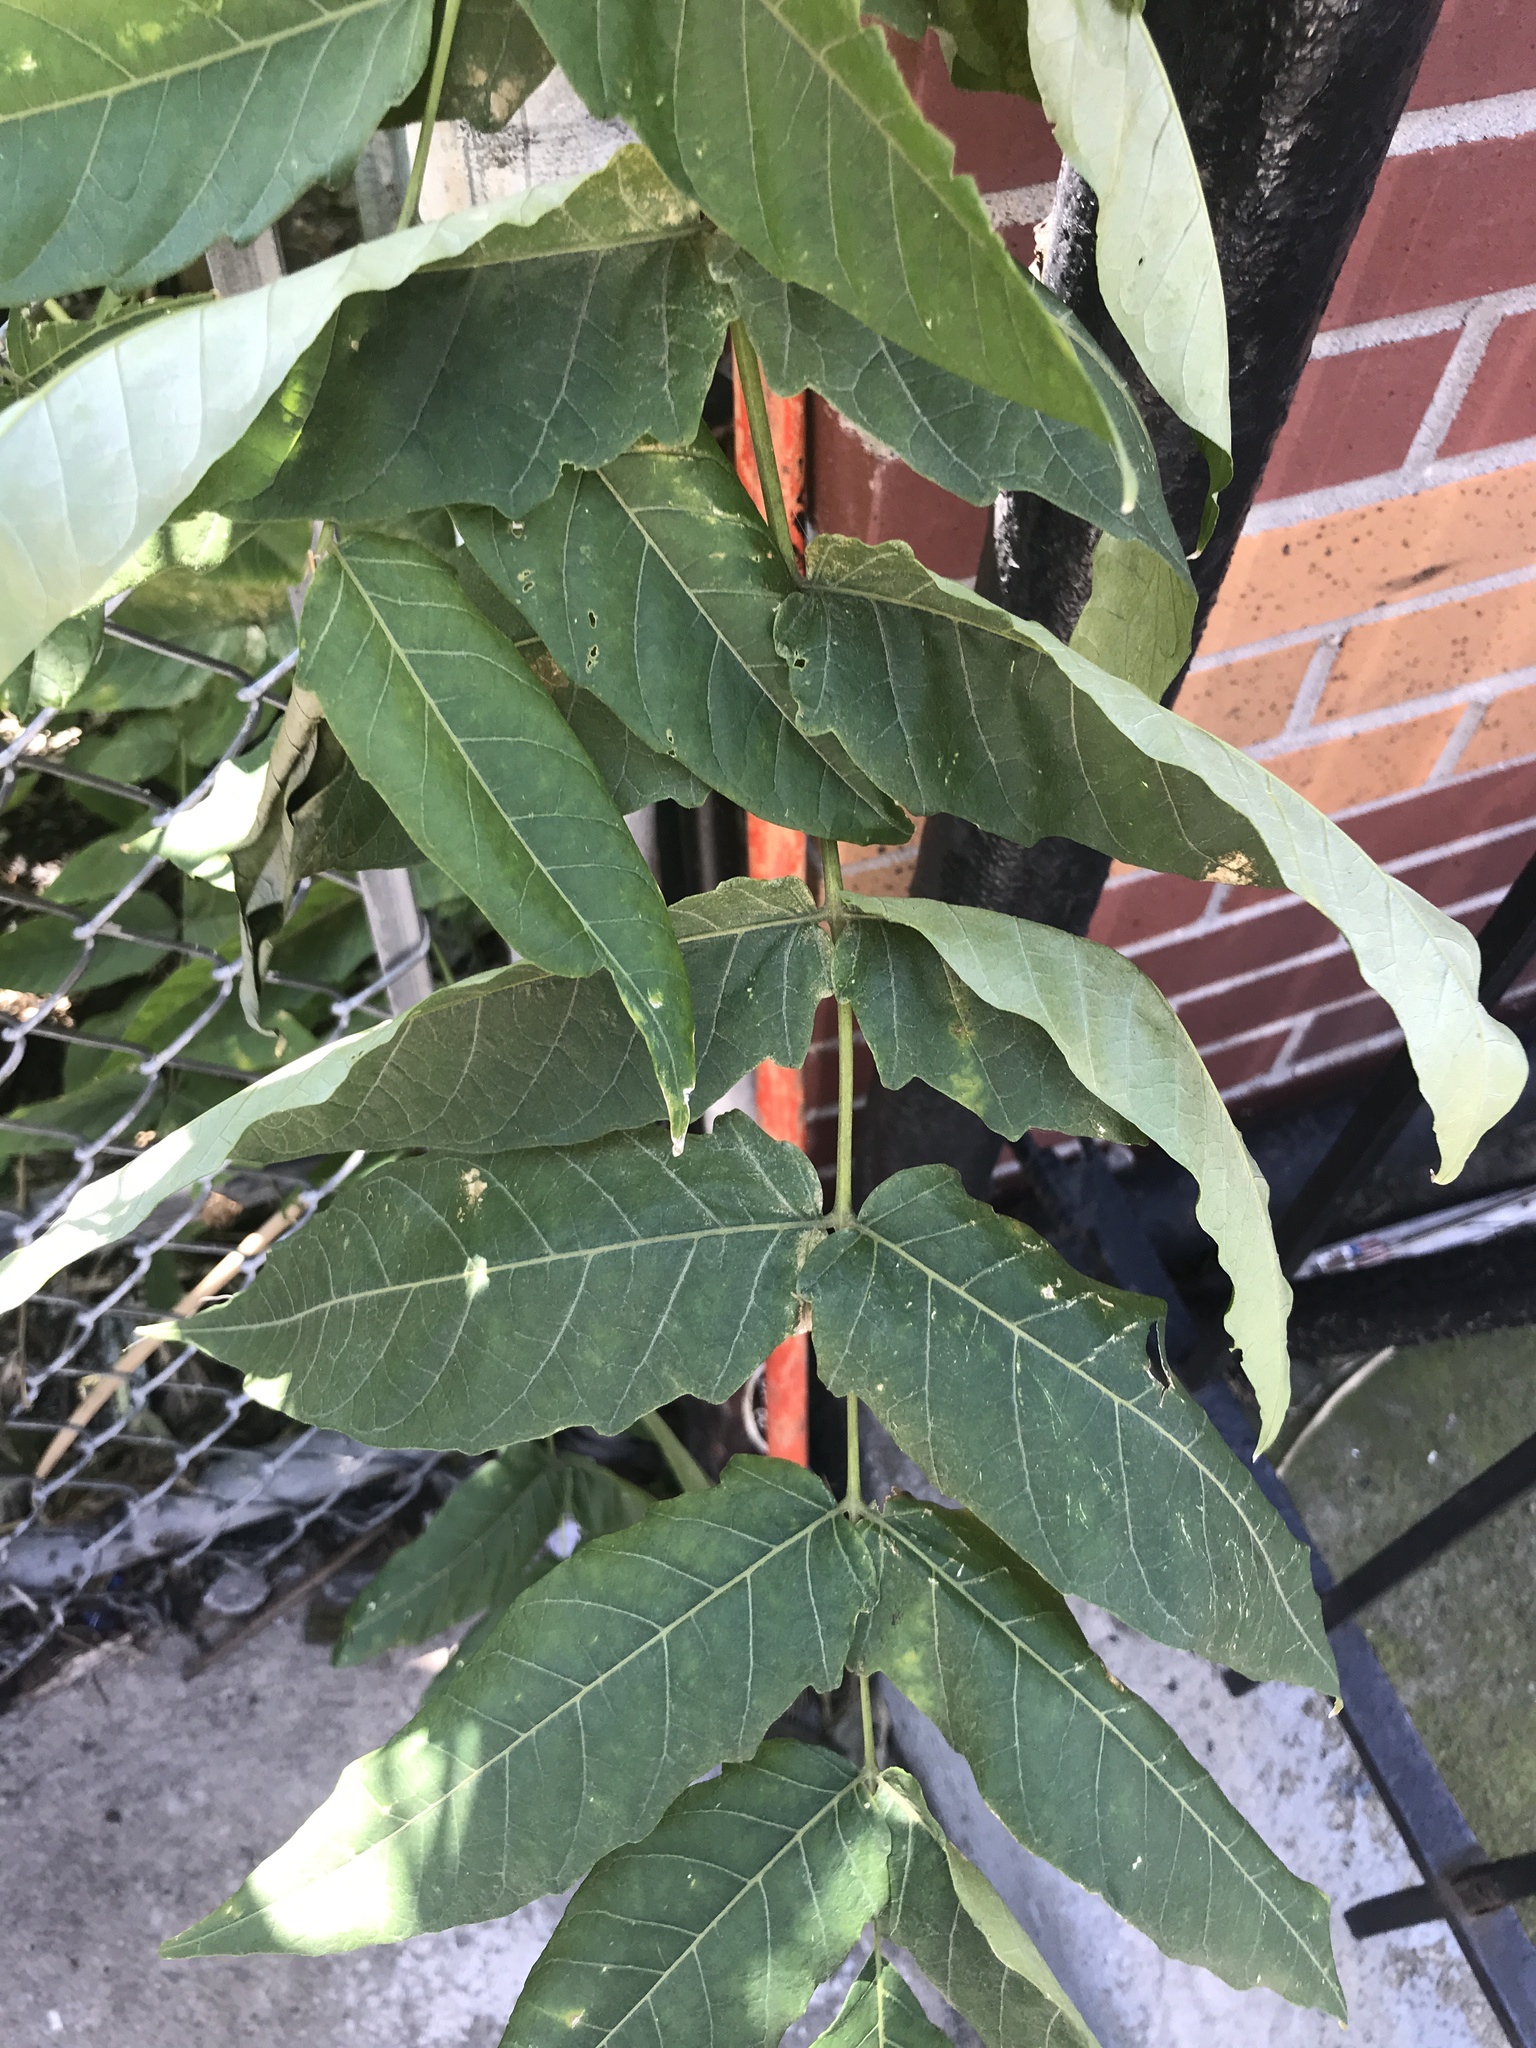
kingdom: Plantae
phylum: Tracheophyta
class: Magnoliopsida
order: Sapindales
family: Simaroubaceae
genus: Ailanthus
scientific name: Ailanthus altissima
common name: Tree-of-heaven
